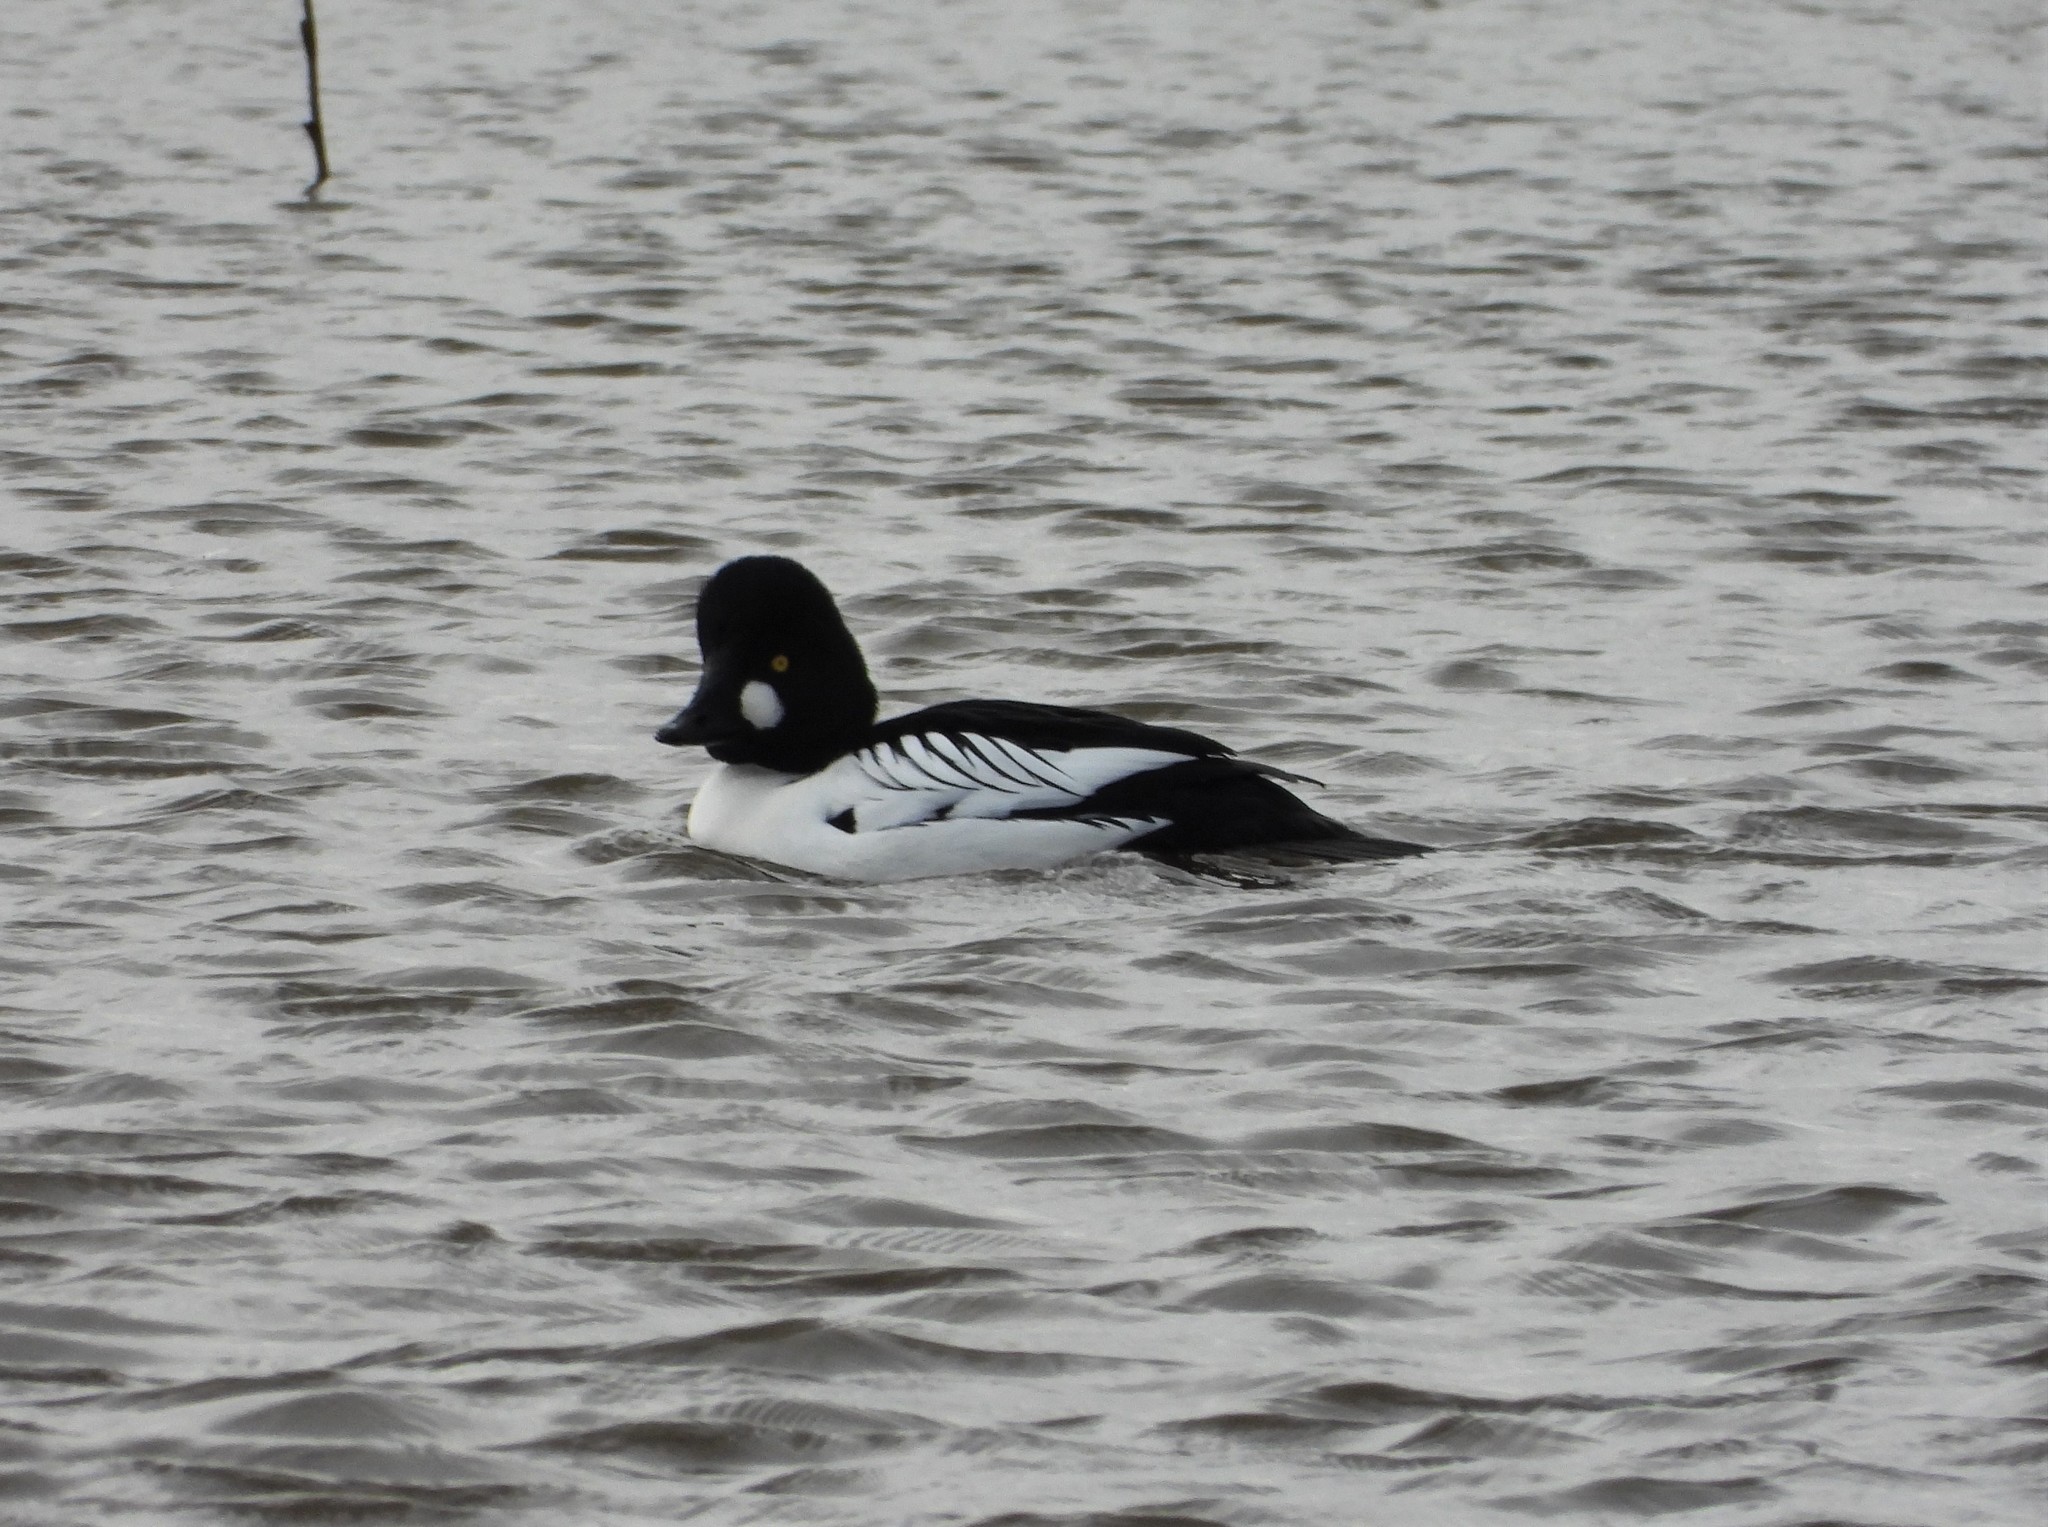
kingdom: Animalia
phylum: Chordata
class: Aves
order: Anseriformes
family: Anatidae
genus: Bucephala
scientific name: Bucephala clangula
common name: Common goldeneye
